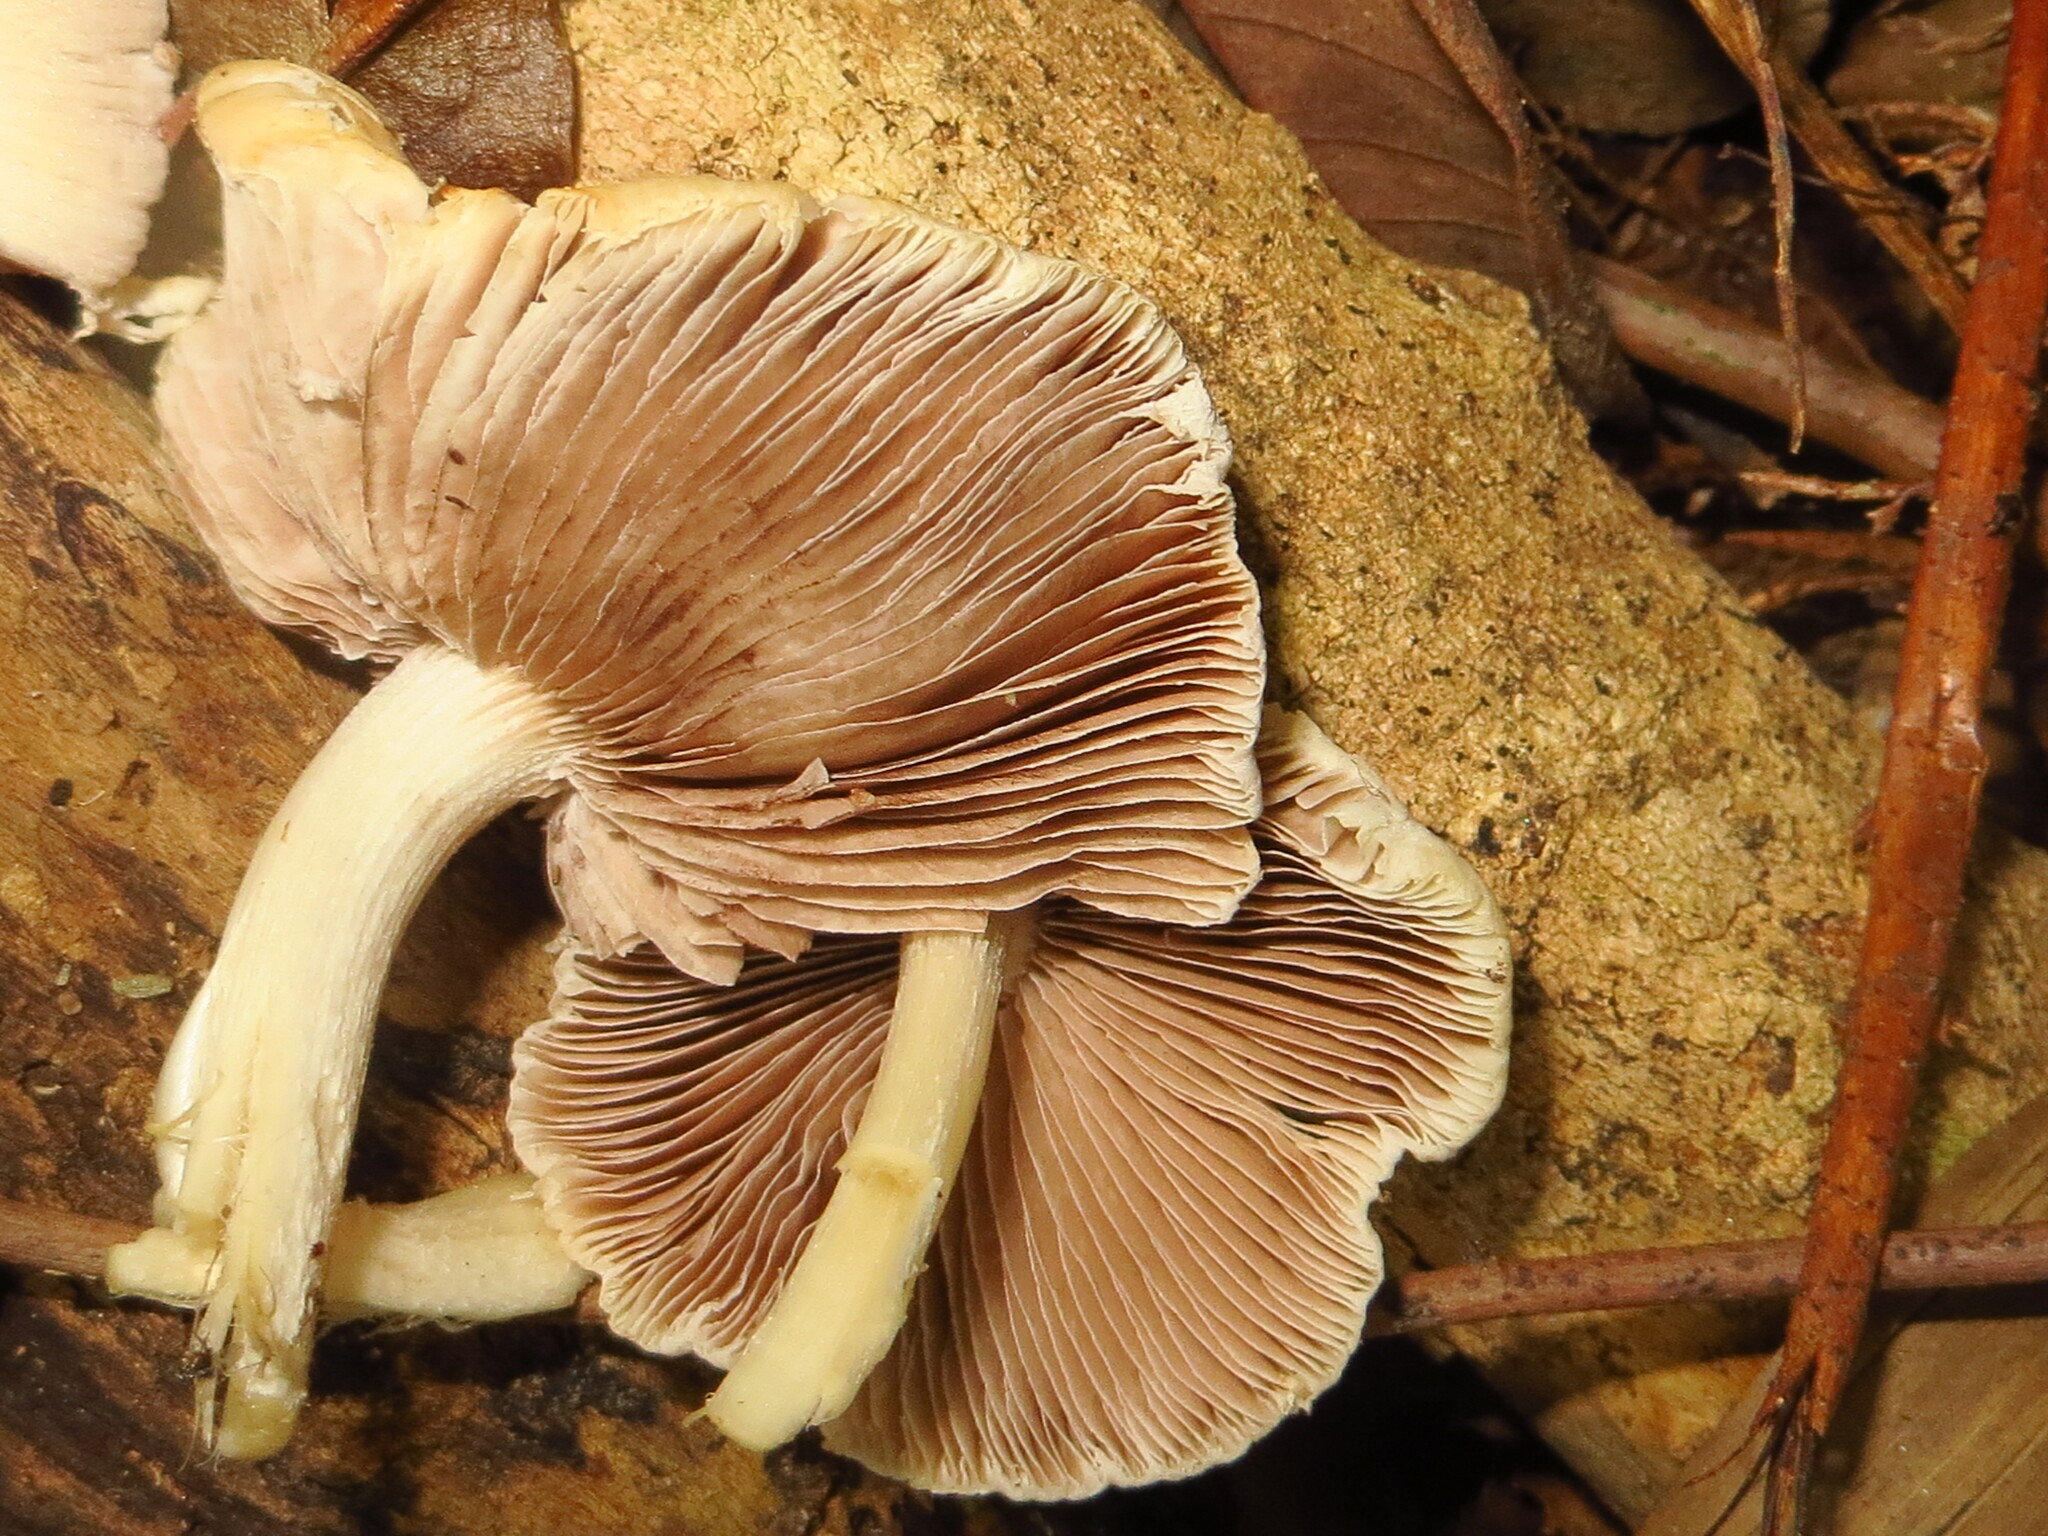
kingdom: Fungi
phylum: Basidiomycota
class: Agaricomycetes
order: Agaricales
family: Psathyrellaceae
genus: Candolleomyces
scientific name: Candolleomyces candolleanus
